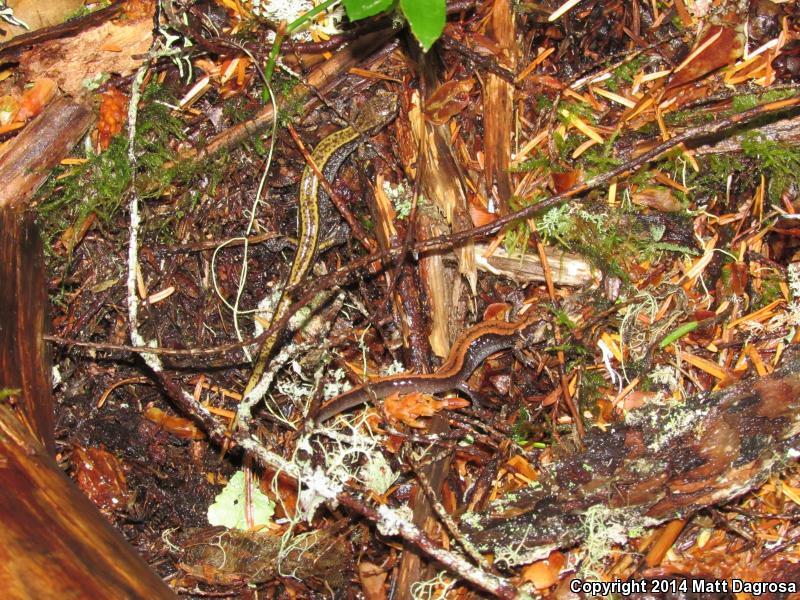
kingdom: Animalia
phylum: Chordata
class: Amphibia
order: Caudata
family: Plethodontidae
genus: Plethodon
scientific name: Plethodon vehiculum
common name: Western red-backed salamander
